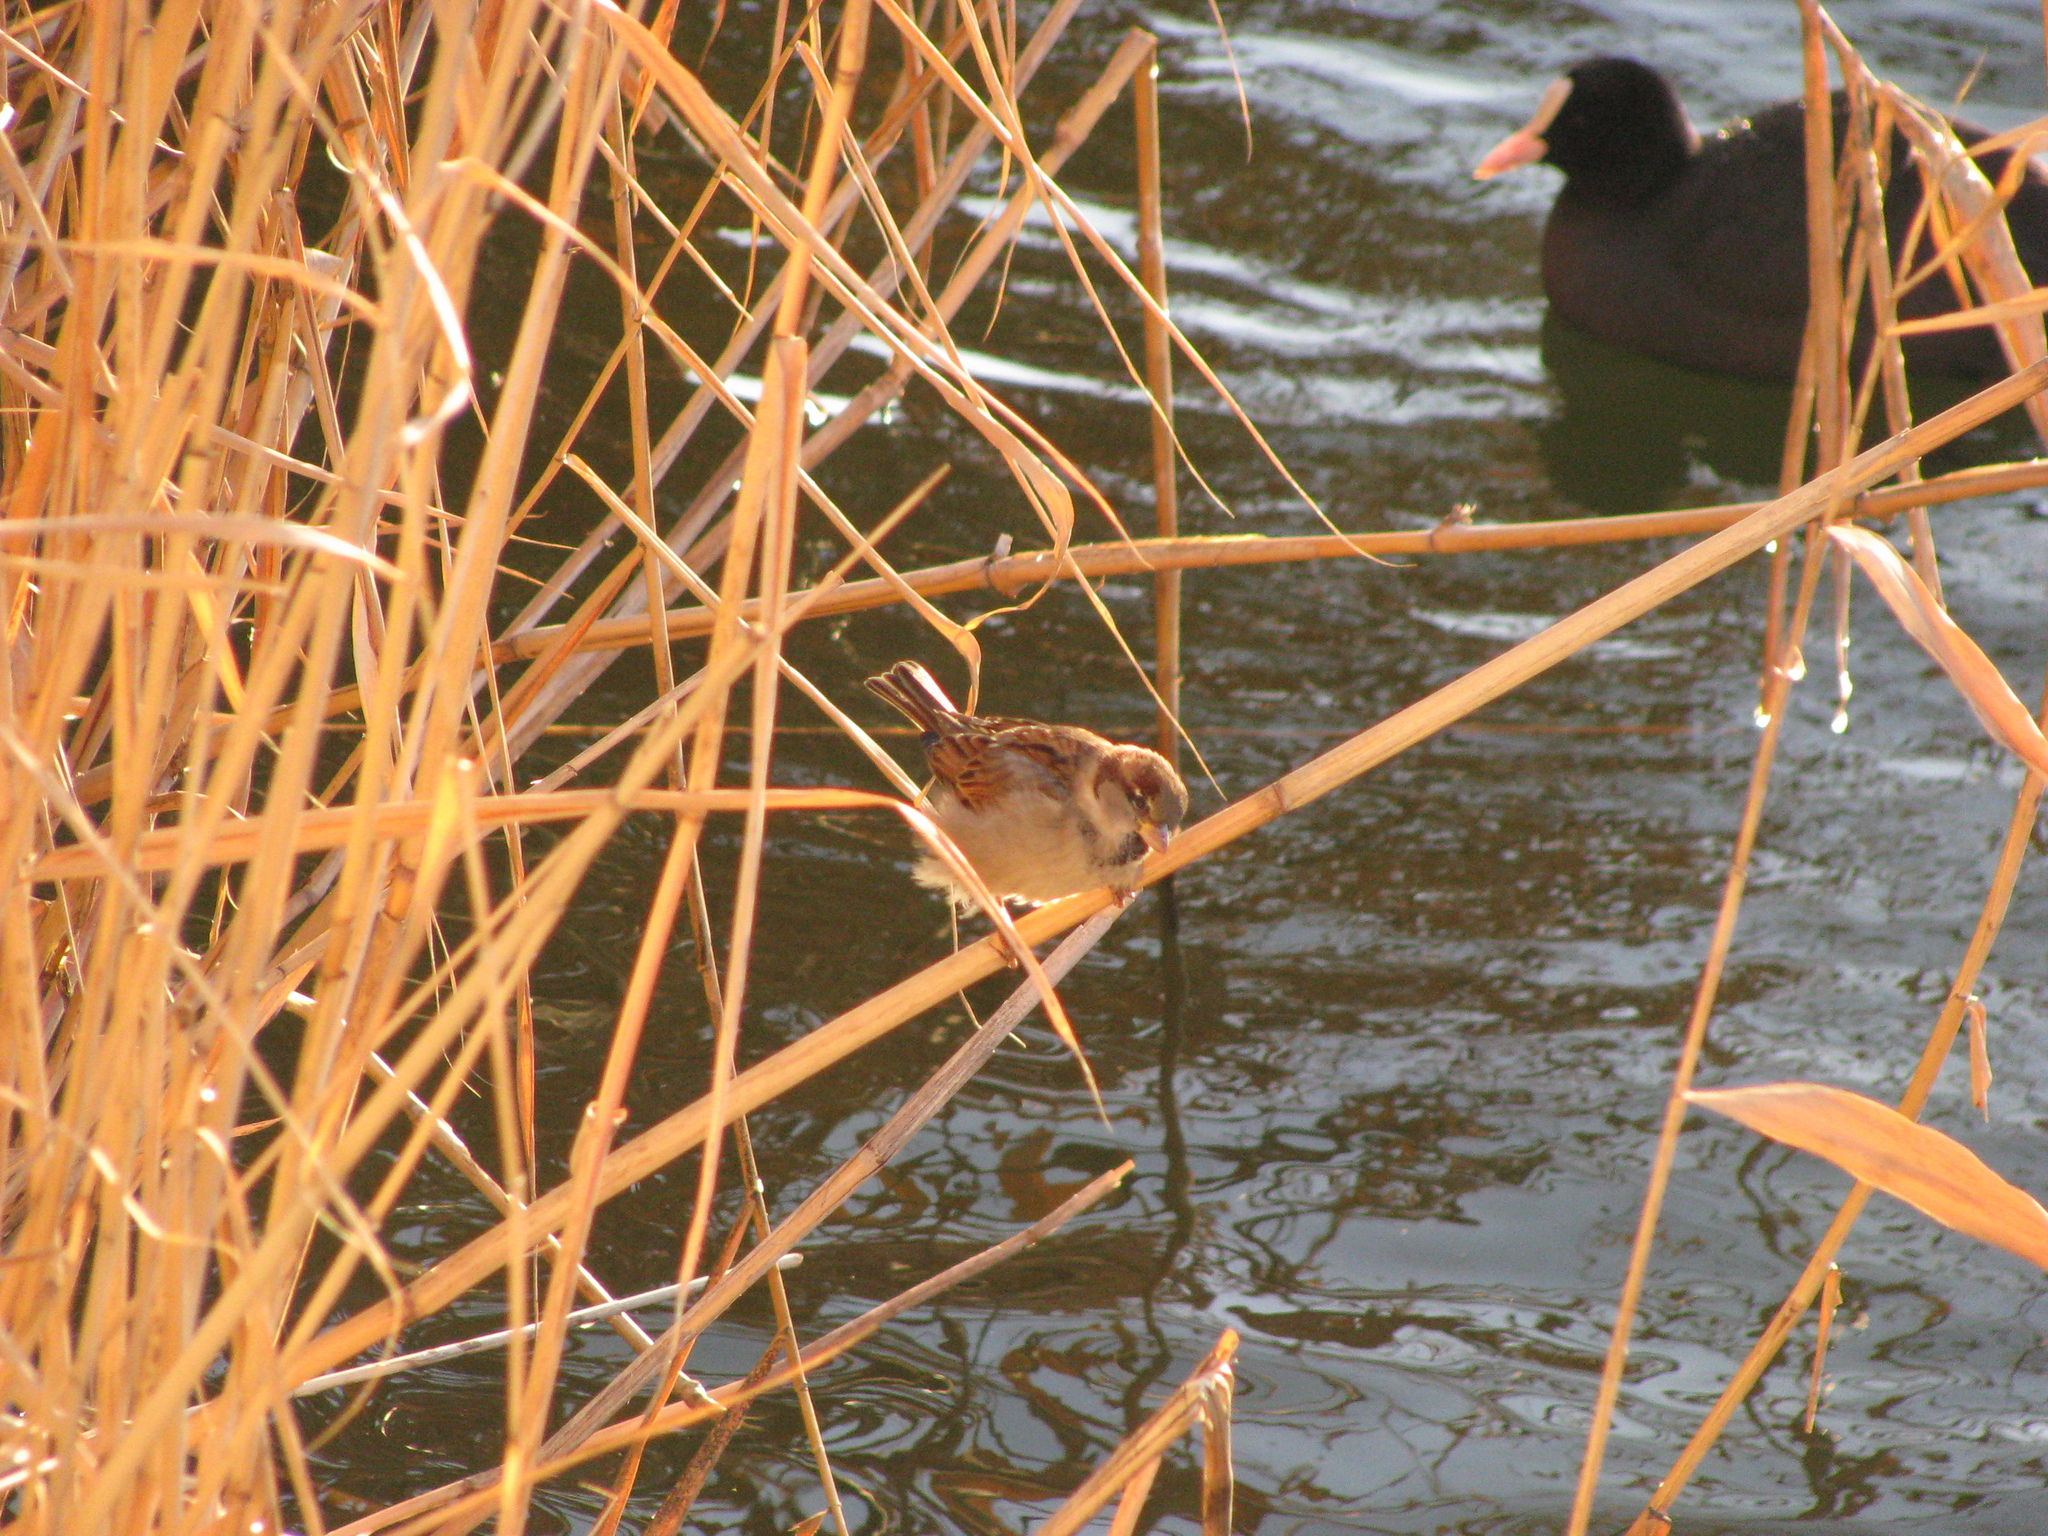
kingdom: Animalia
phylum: Chordata
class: Aves
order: Passeriformes
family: Passeridae
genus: Passer
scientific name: Passer domesticus
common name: House sparrow
